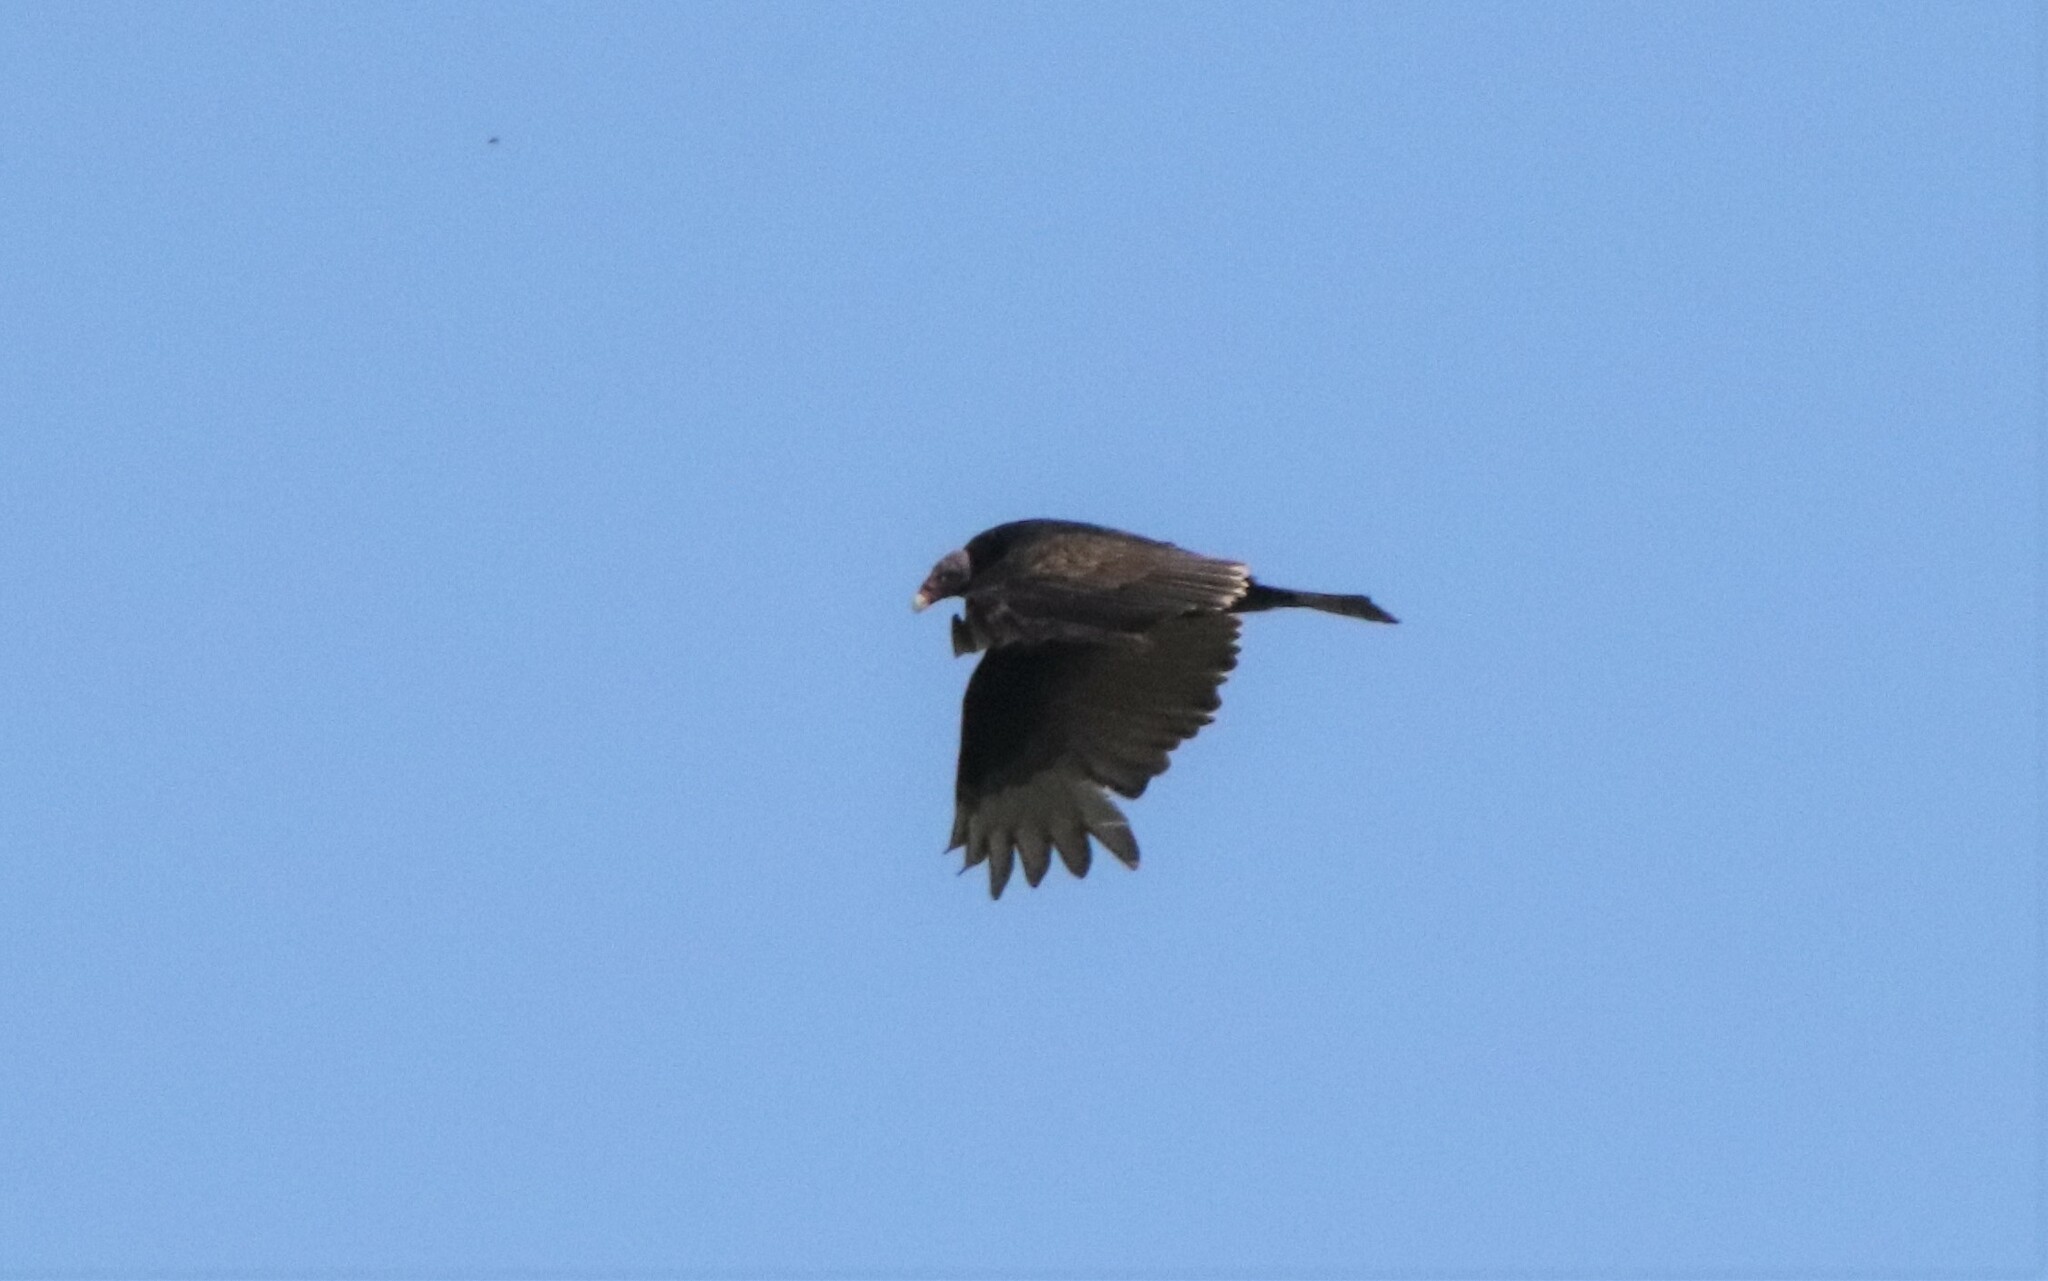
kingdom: Animalia
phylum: Chordata
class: Aves
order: Accipitriformes
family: Cathartidae
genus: Cathartes
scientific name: Cathartes aura
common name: Turkey vulture
